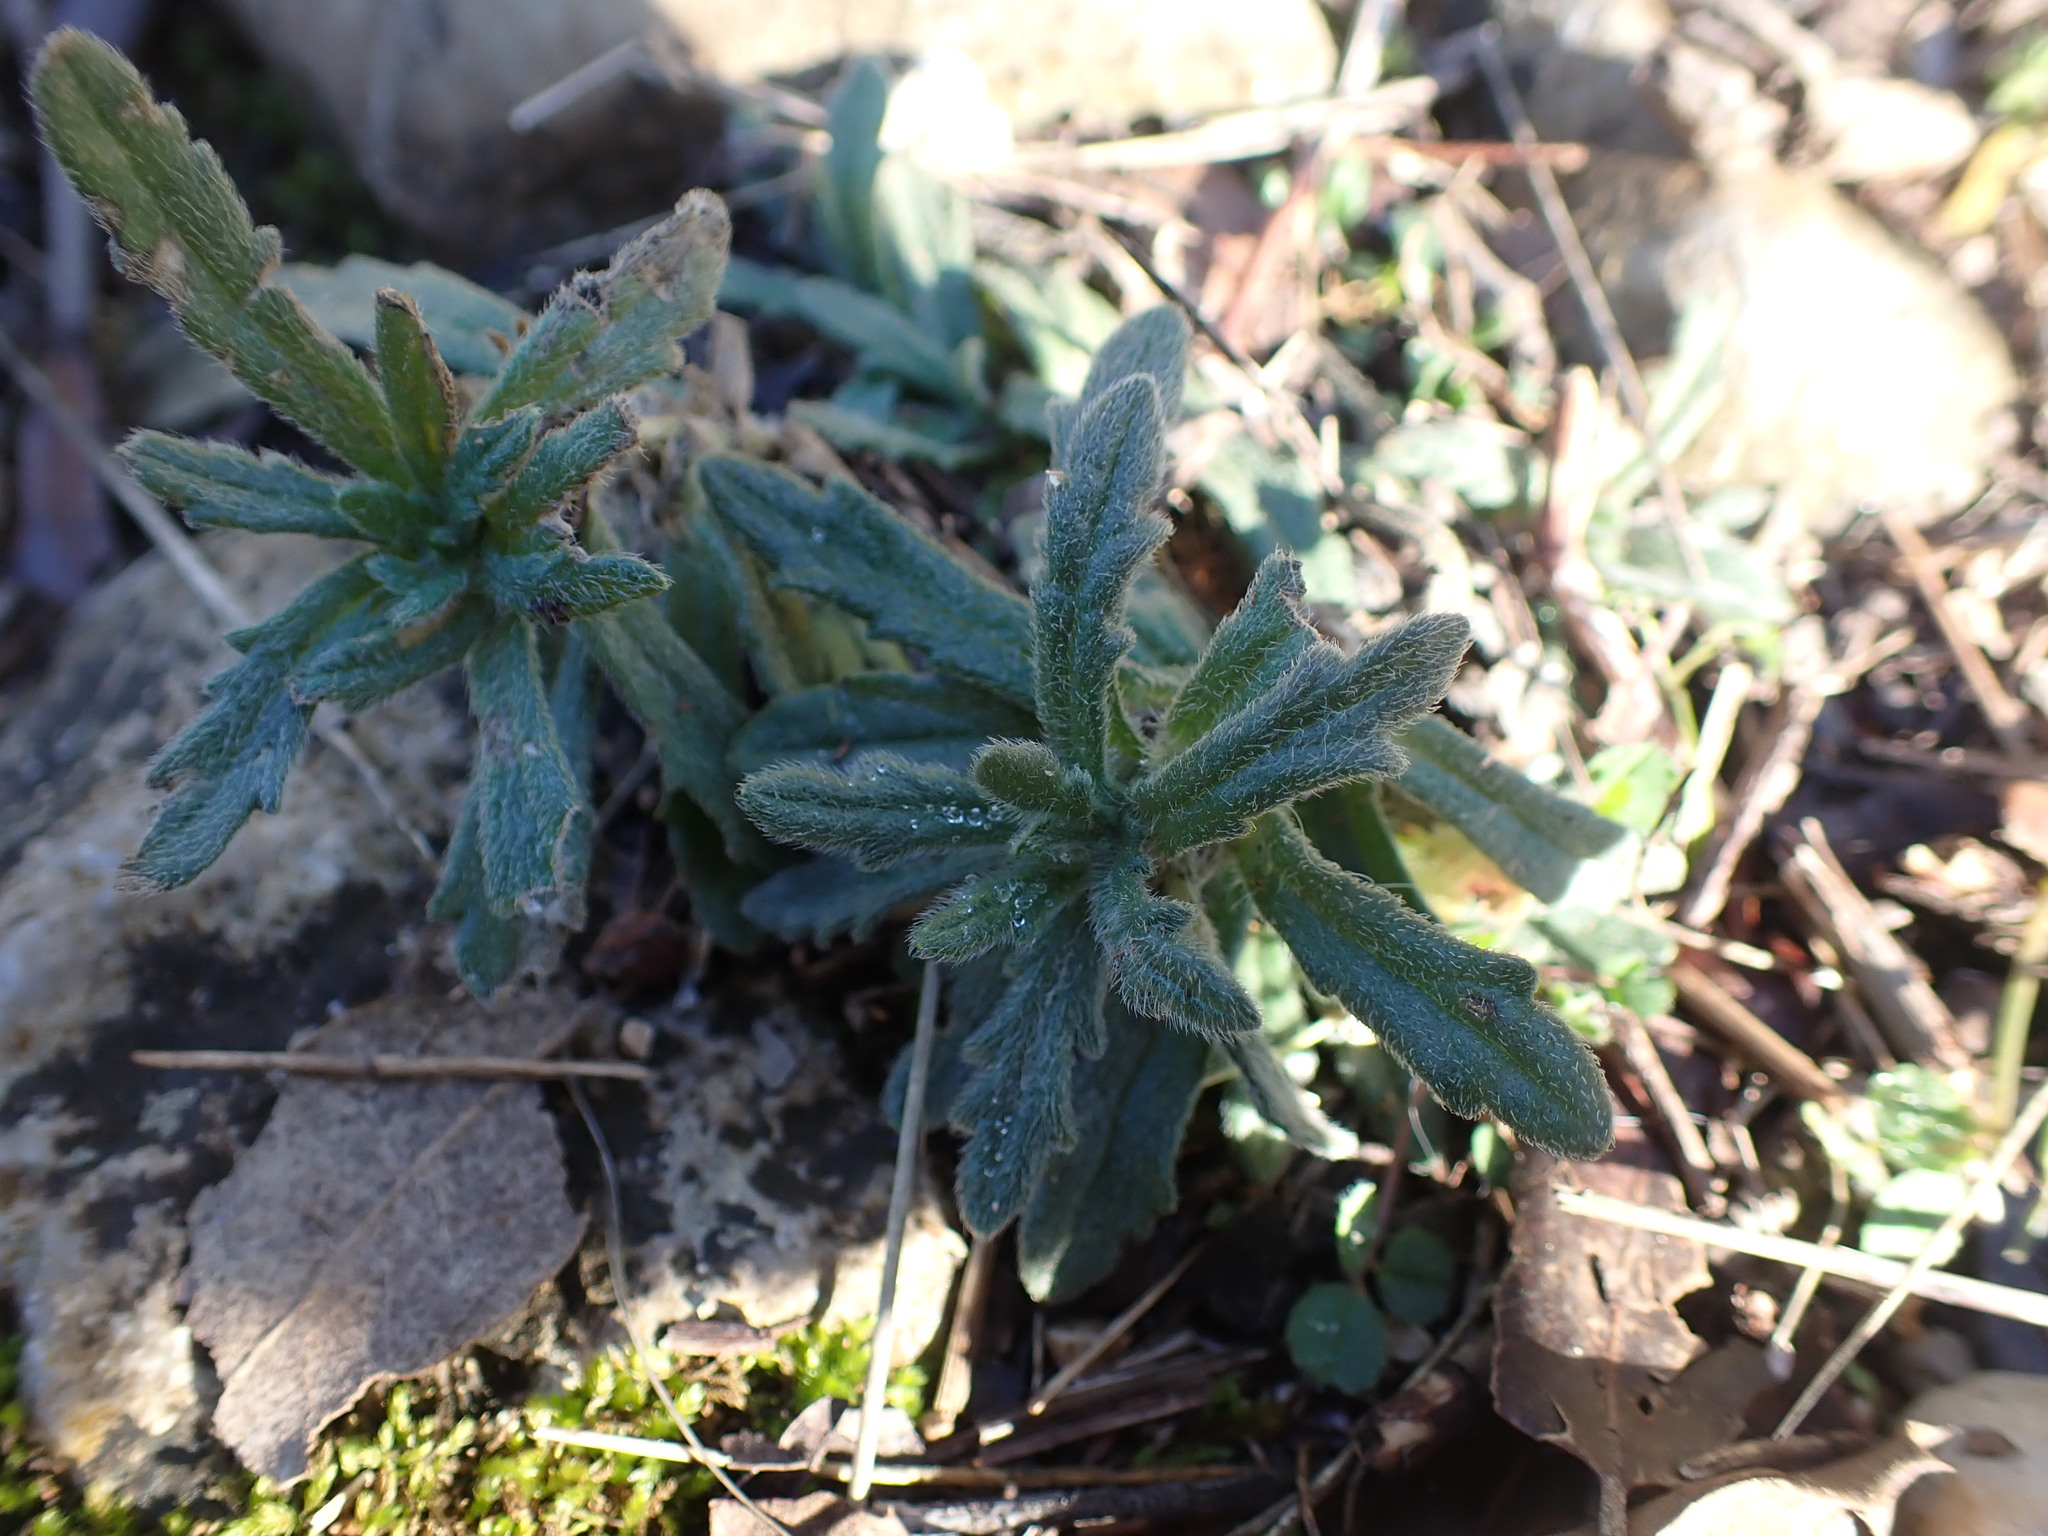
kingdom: Plantae
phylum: Tracheophyta
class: Magnoliopsida
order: Lamiales
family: Lamiaceae
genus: Ajuga
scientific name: Ajuga iva
